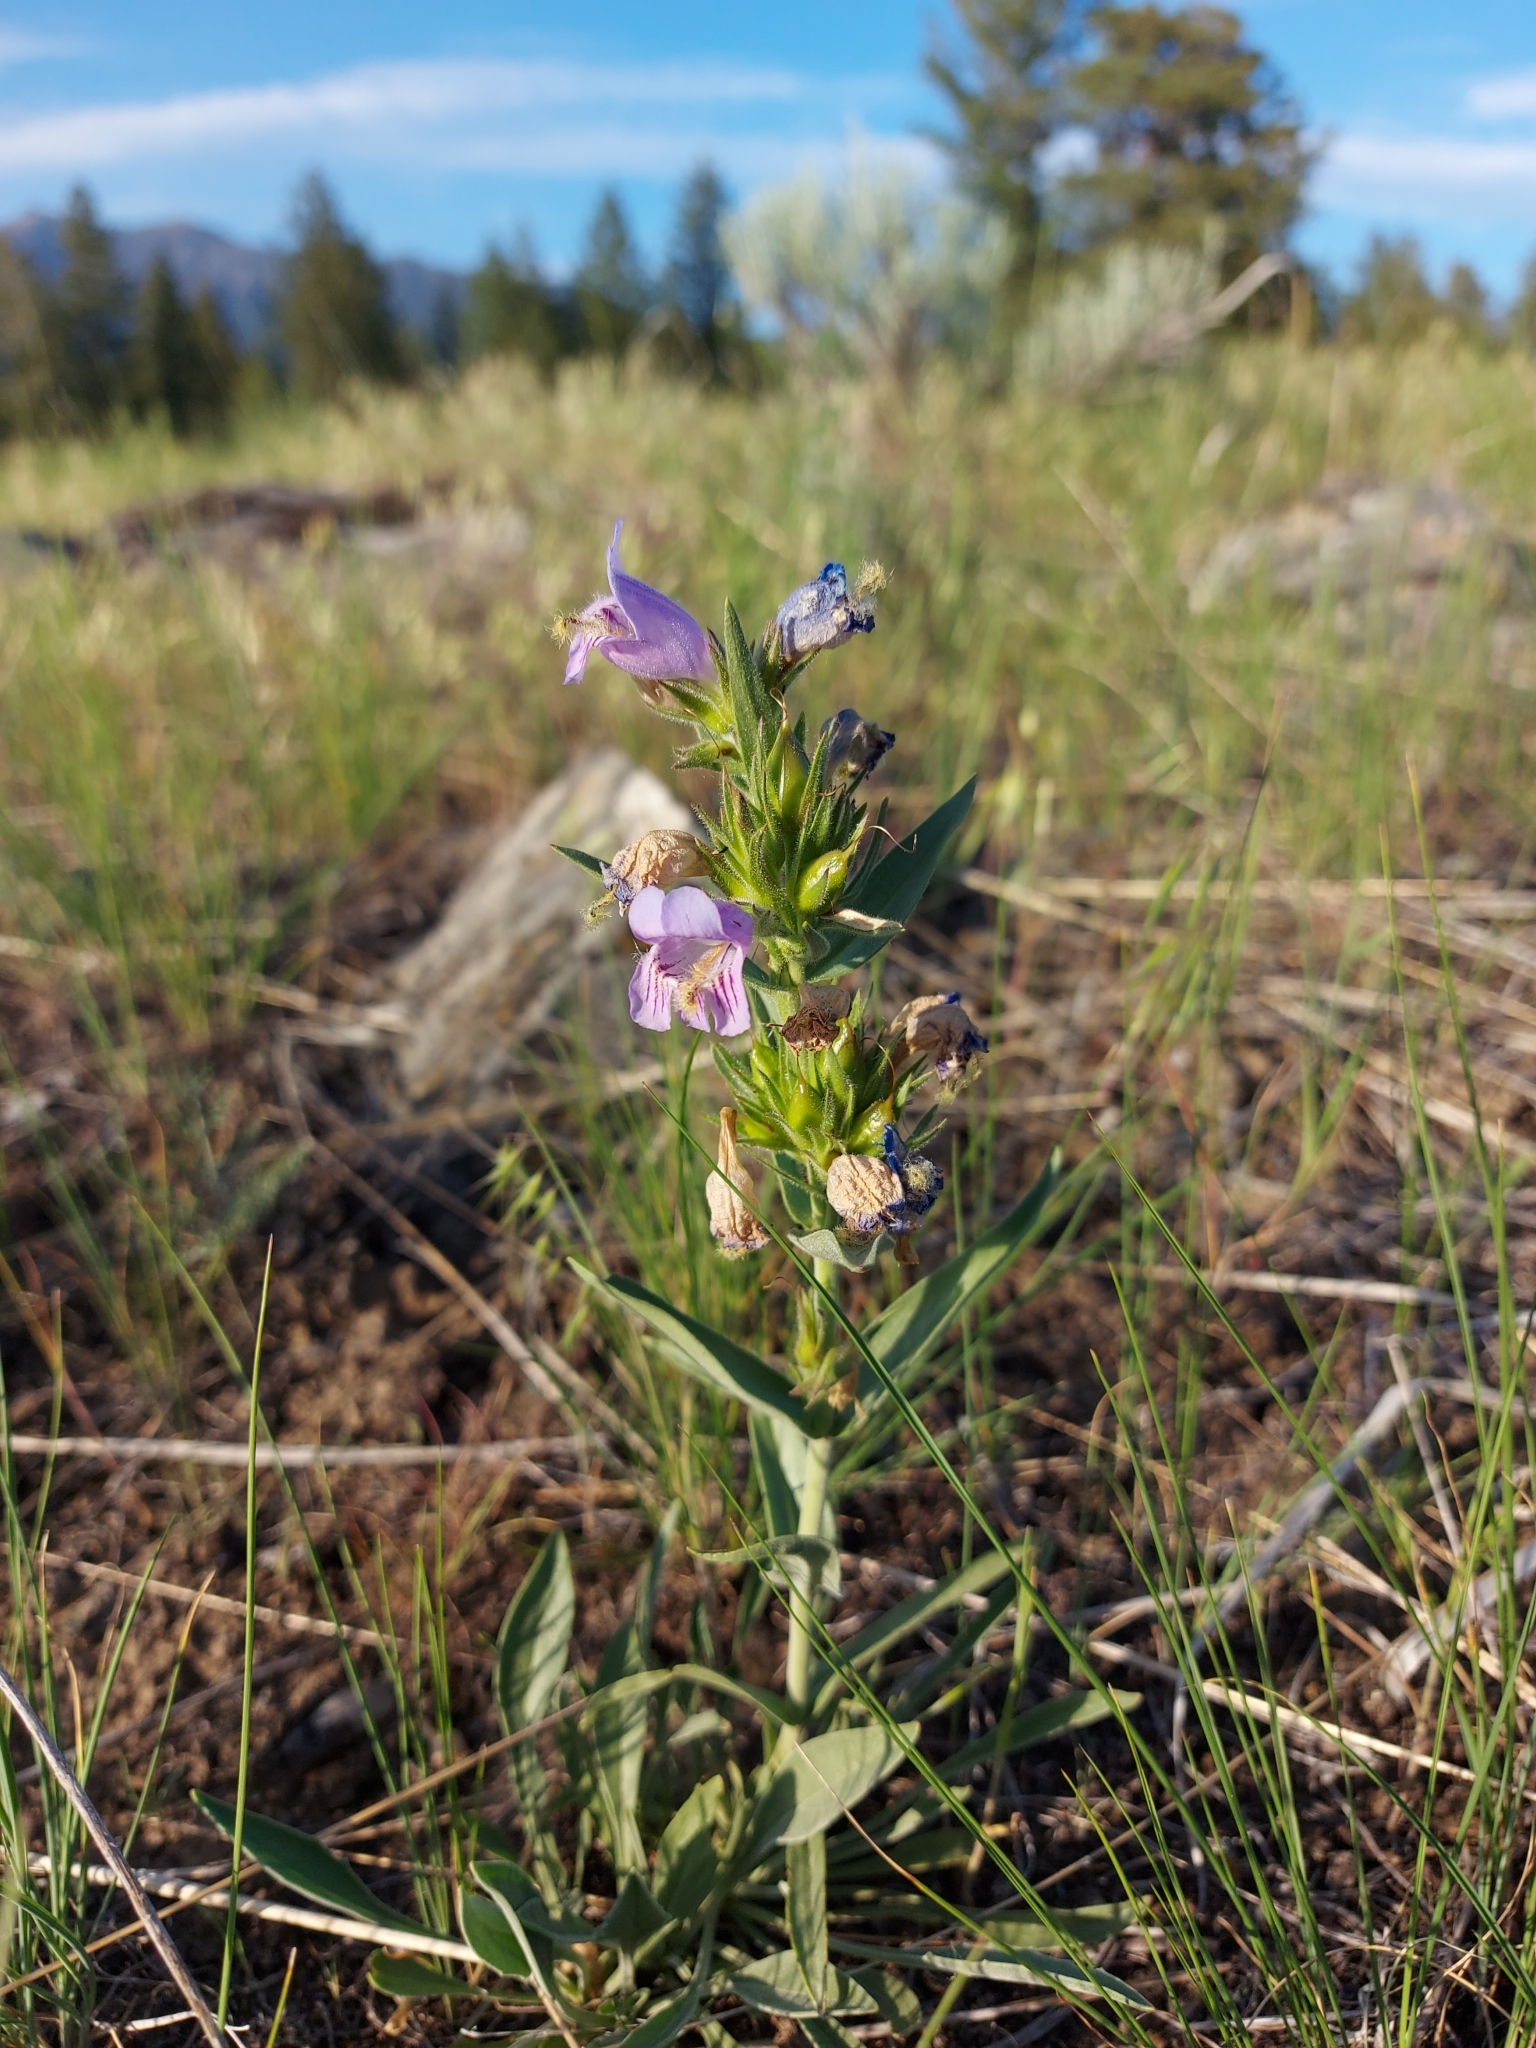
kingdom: Plantae
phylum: Tracheophyta
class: Magnoliopsida
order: Lamiales
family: Plantaginaceae
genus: Penstemon
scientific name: Penstemon eriantherus
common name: Crested beardtongue
